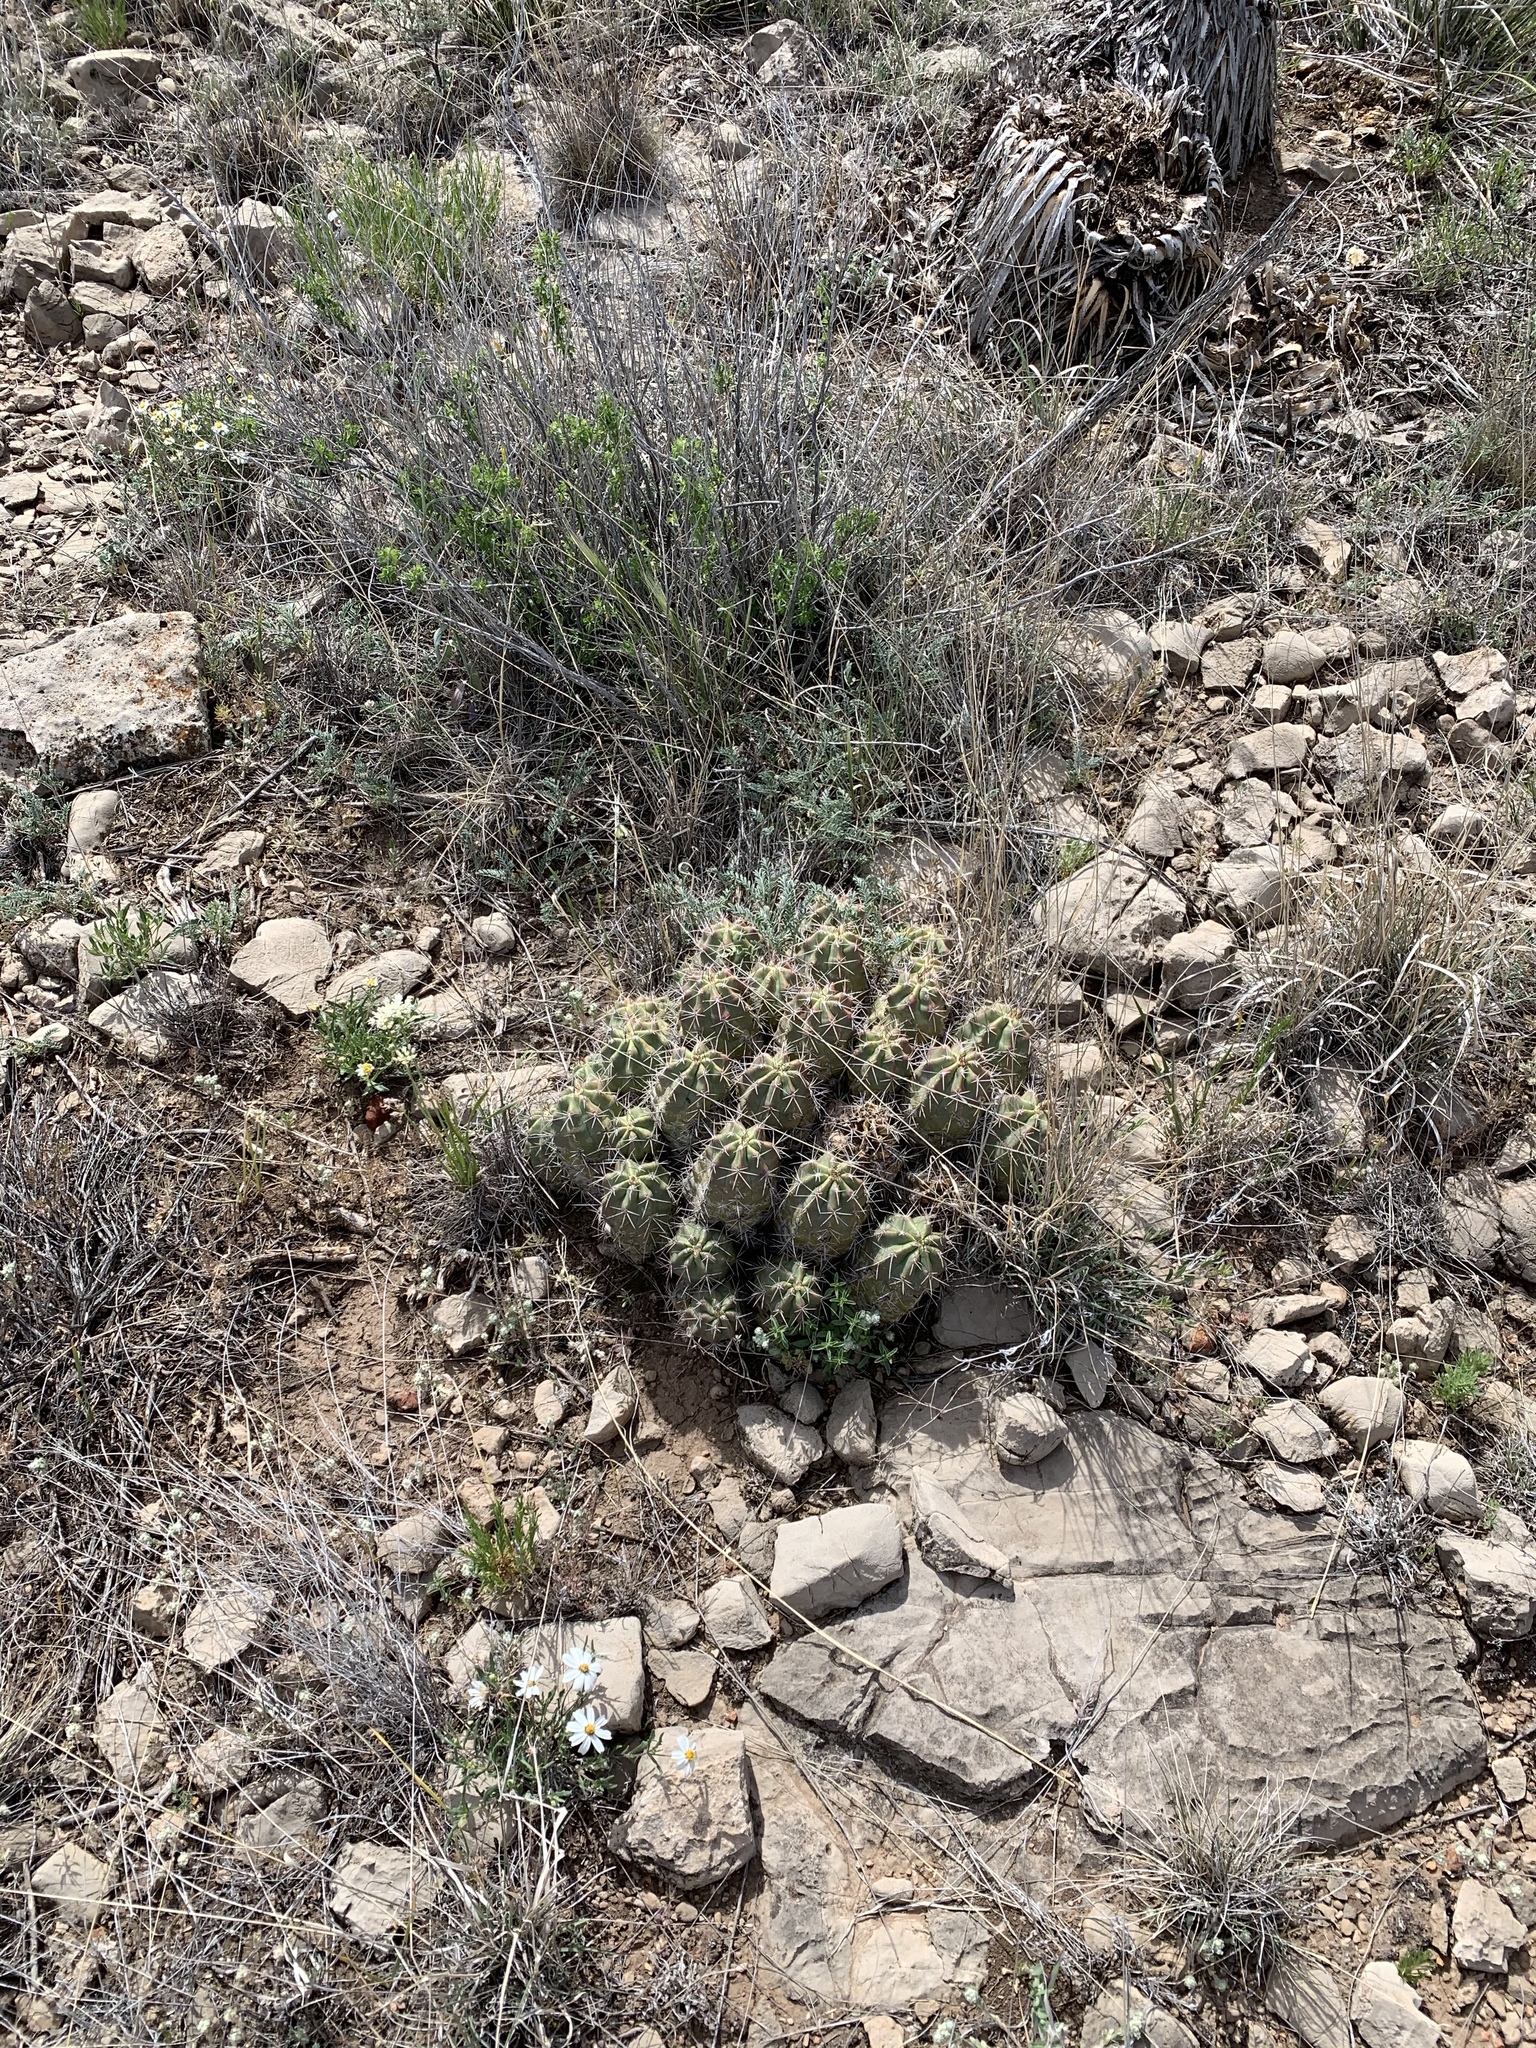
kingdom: Plantae
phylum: Tracheophyta
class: Magnoliopsida
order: Caryophyllales
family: Cactaceae
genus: Echinocereus
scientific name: Echinocereus coccineus
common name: Scarlet hedgehog cactus
